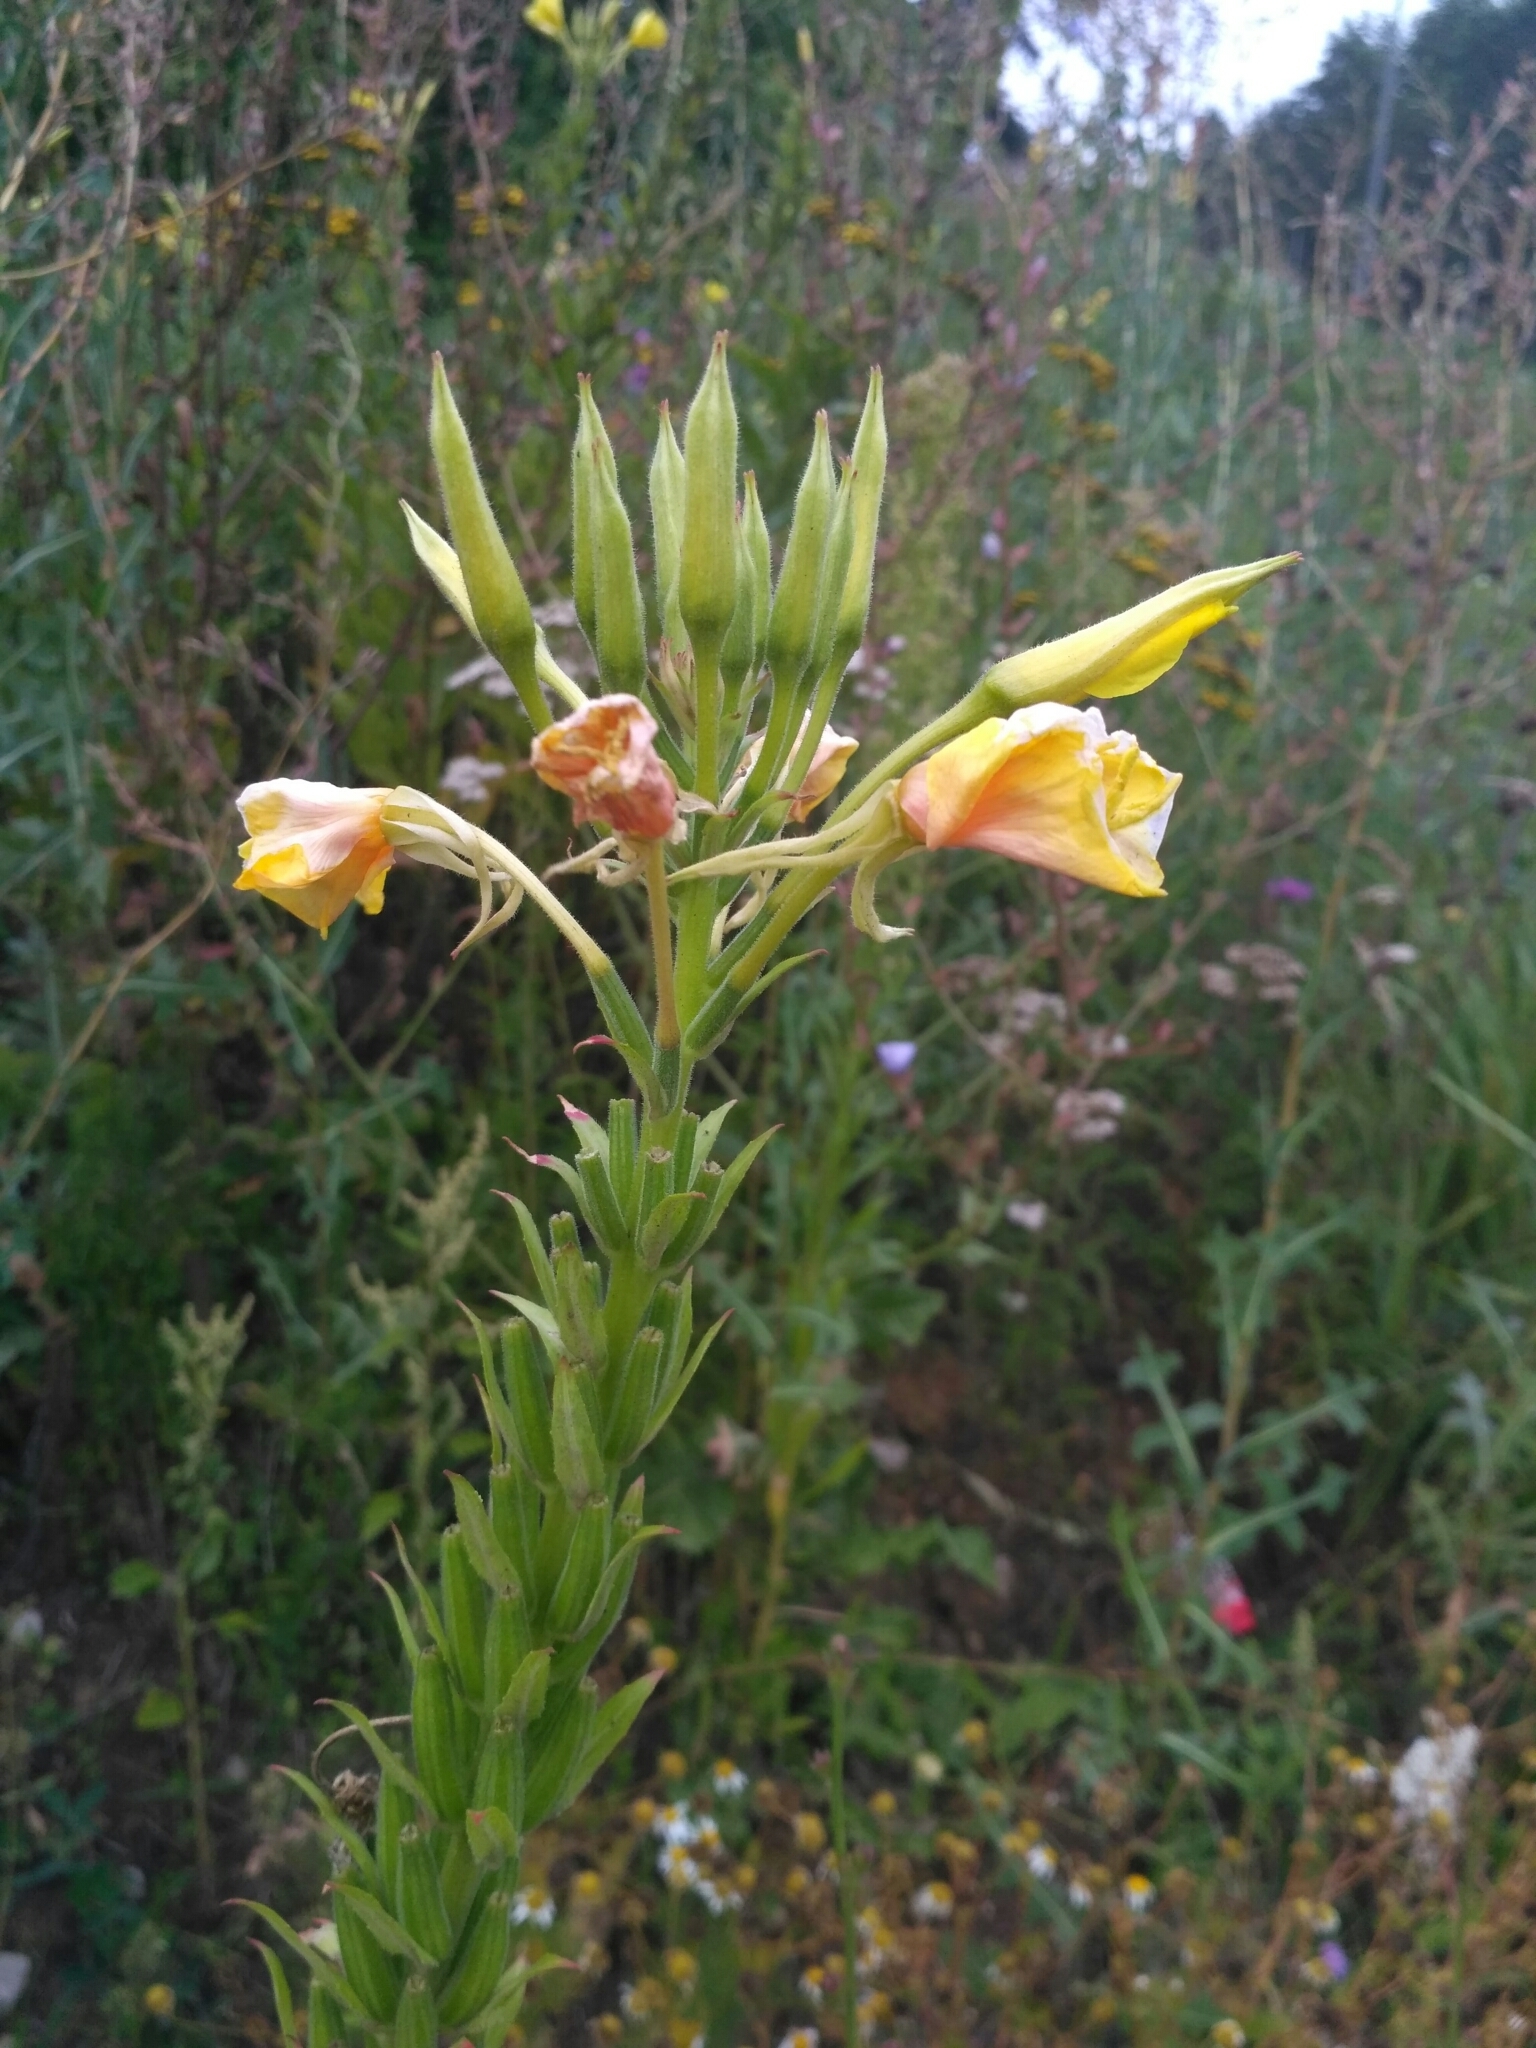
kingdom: Plantae
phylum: Tracheophyta
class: Magnoliopsida
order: Myrtales
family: Onagraceae
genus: Oenothera
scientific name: Oenothera biennis
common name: Common evening-primrose
